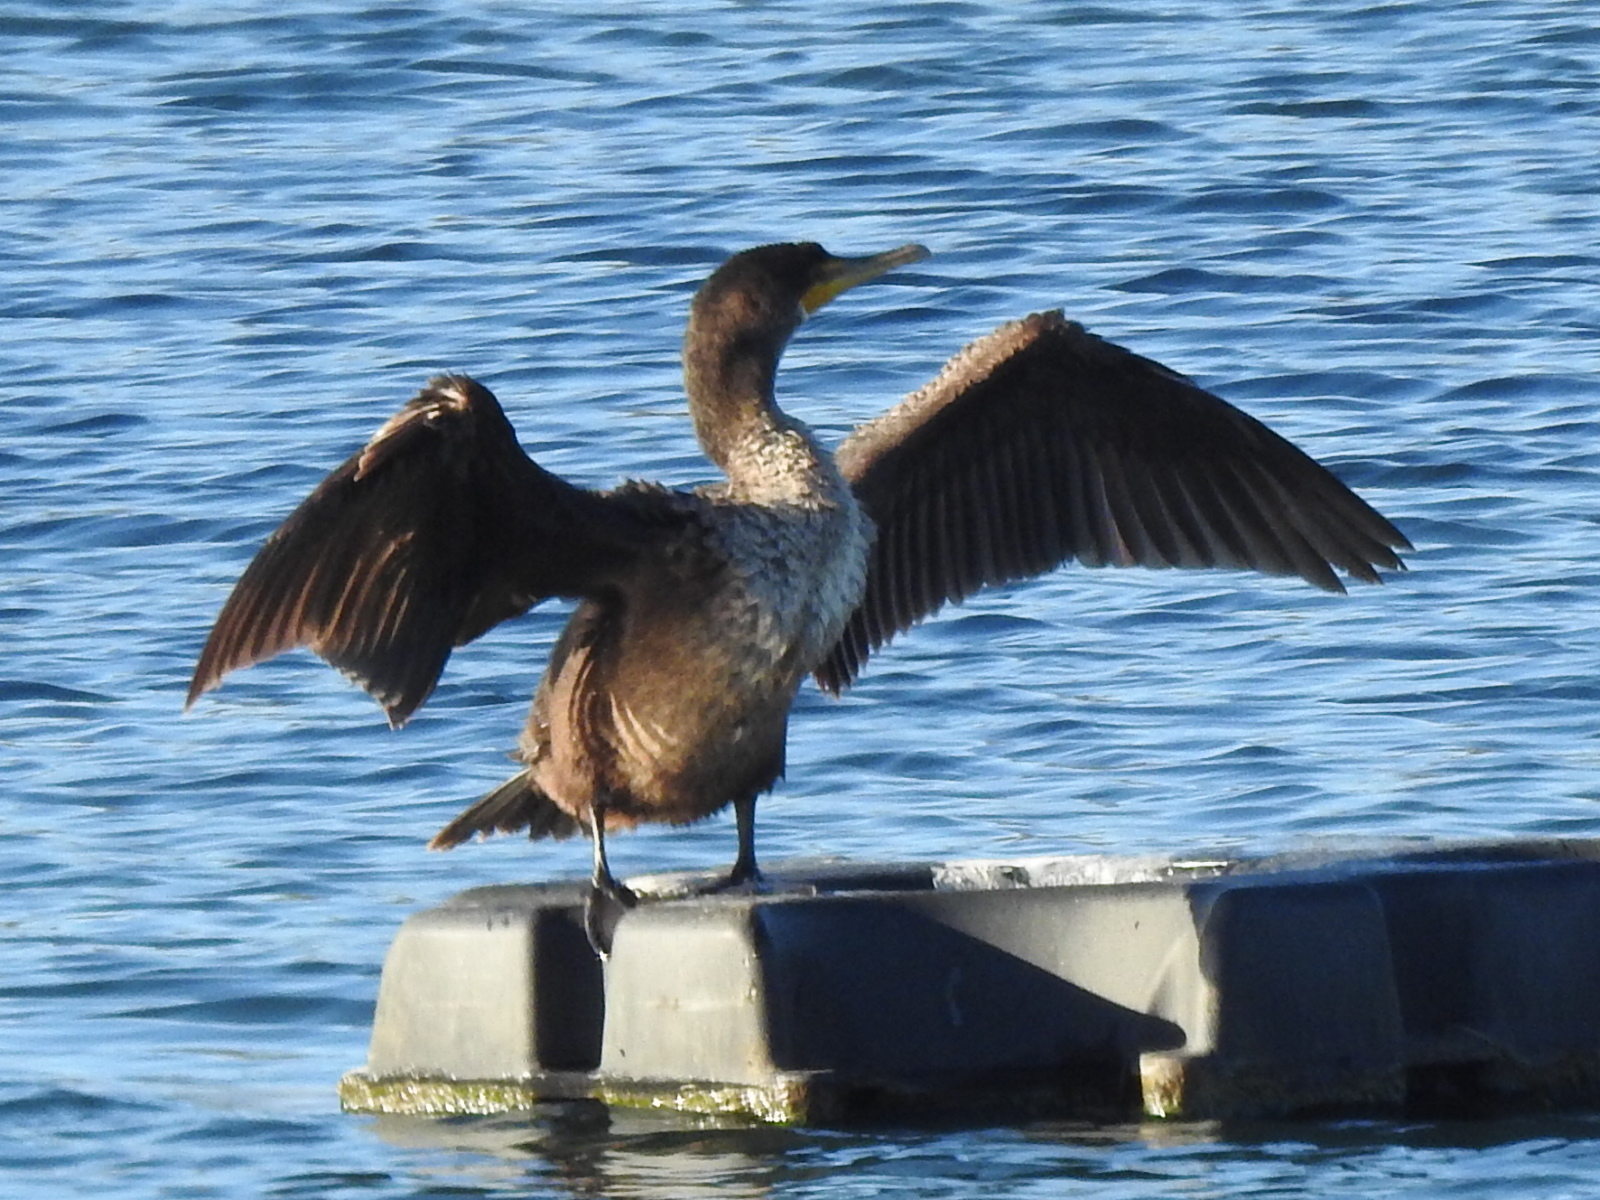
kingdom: Animalia
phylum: Chordata
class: Aves
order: Suliformes
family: Phalacrocoracidae
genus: Phalacrocorax
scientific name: Phalacrocorax auritus
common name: Double-crested cormorant
